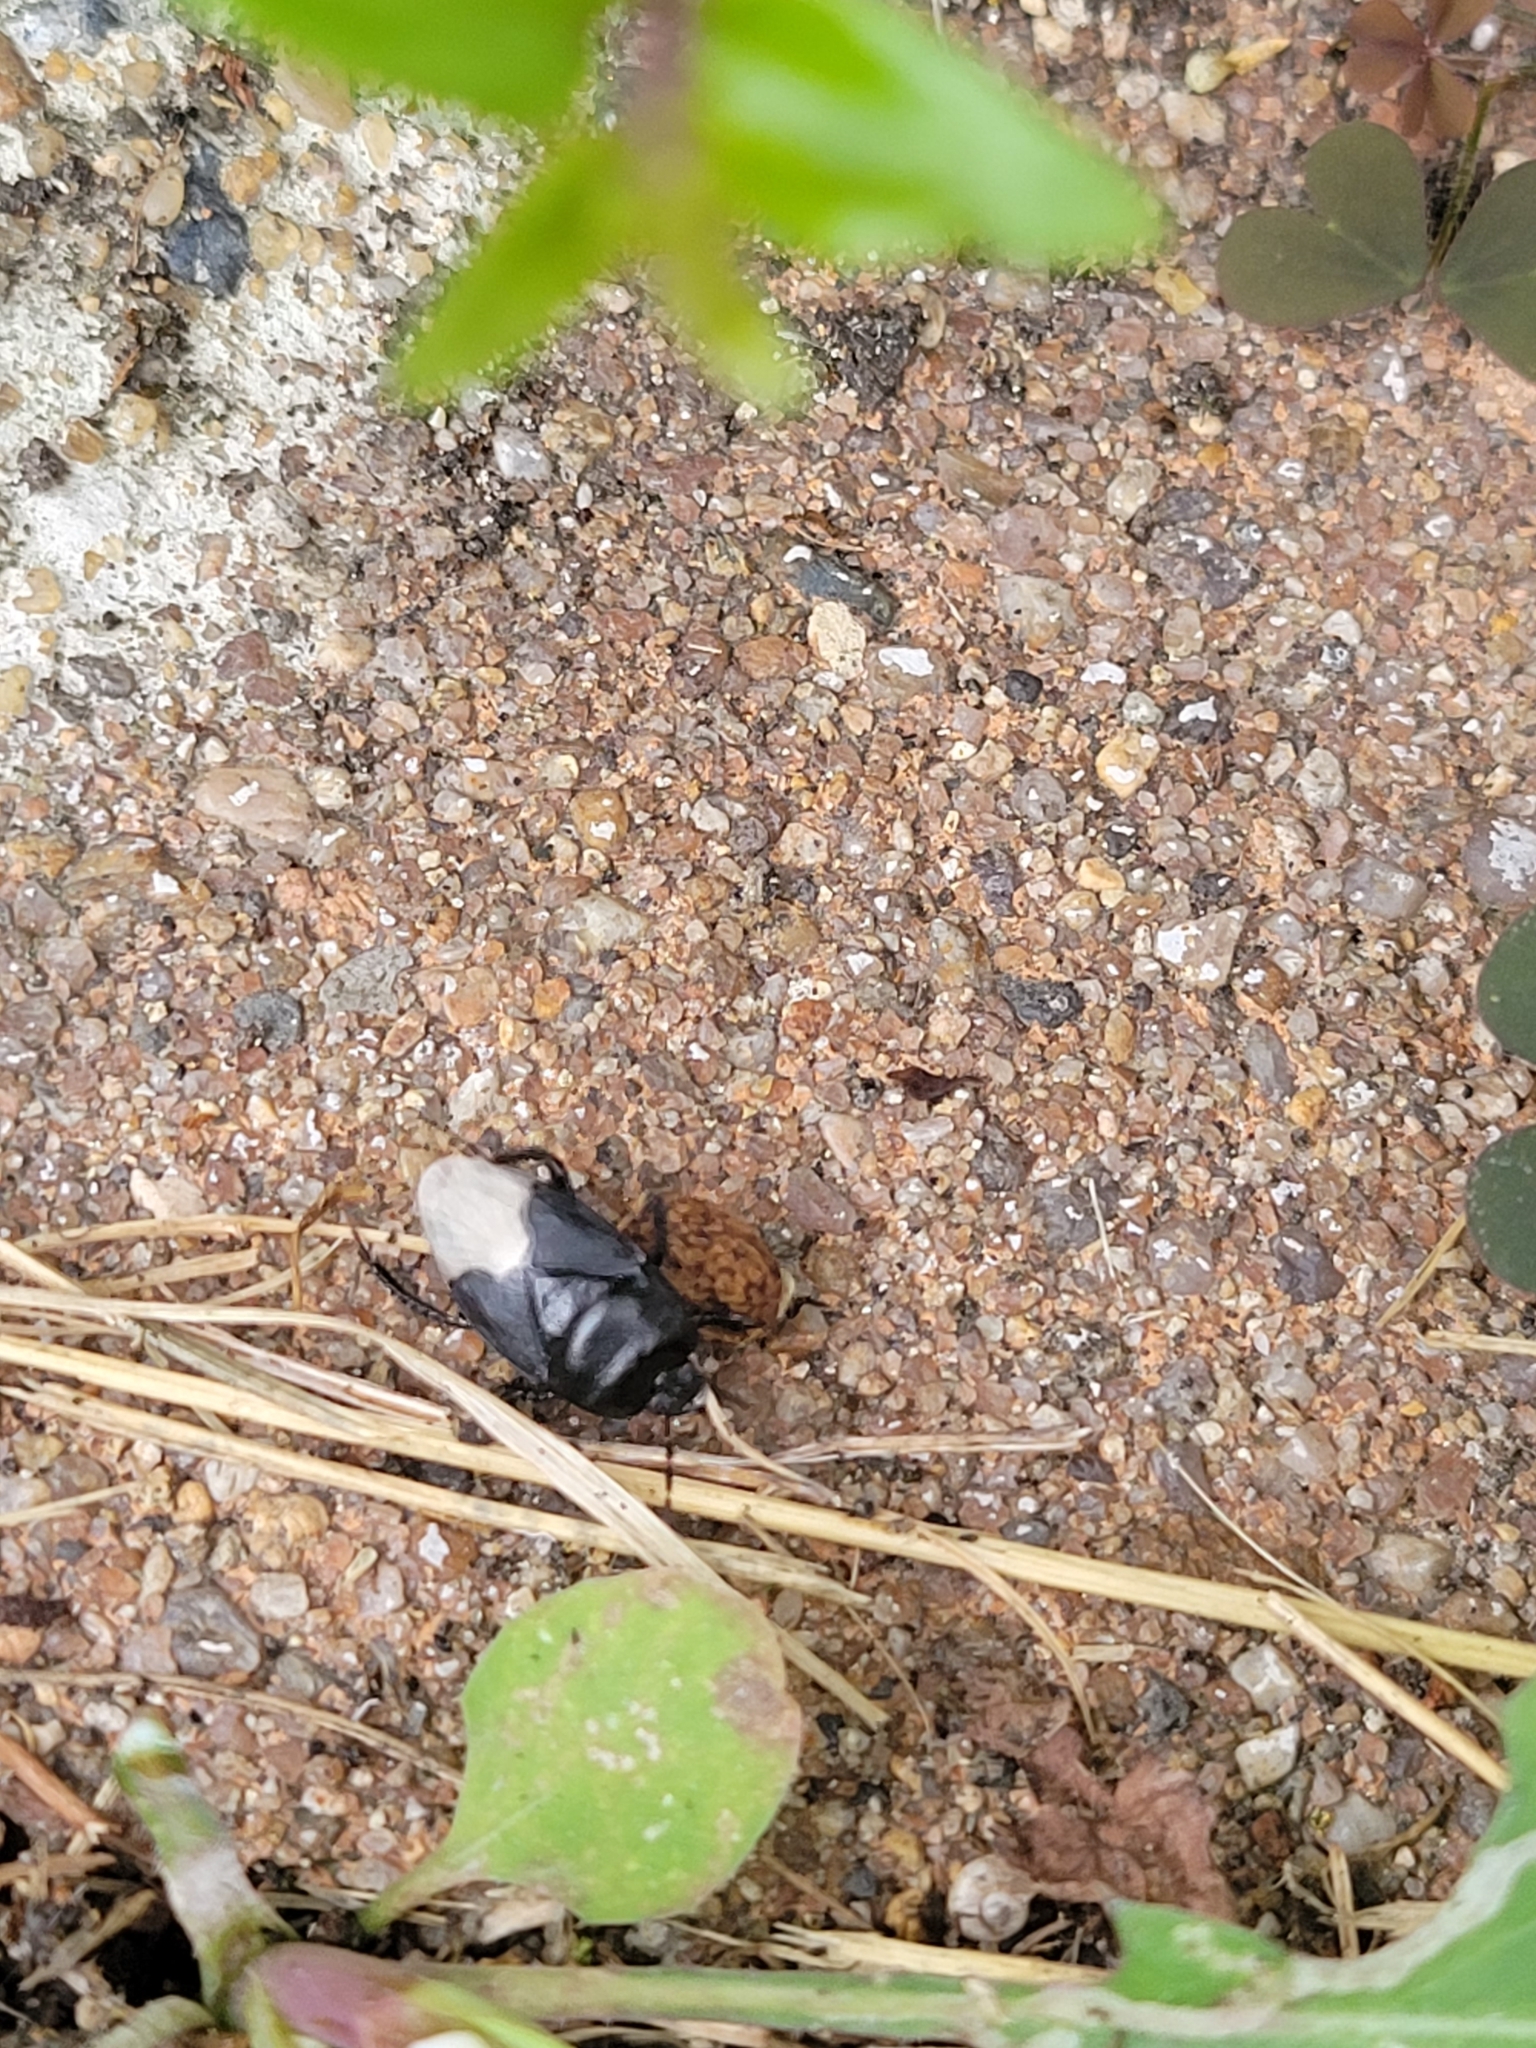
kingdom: Animalia
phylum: Arthropoda
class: Insecta
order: Hemiptera
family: Cydnidae
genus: Cydnus
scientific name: Cydnus aterrimus
